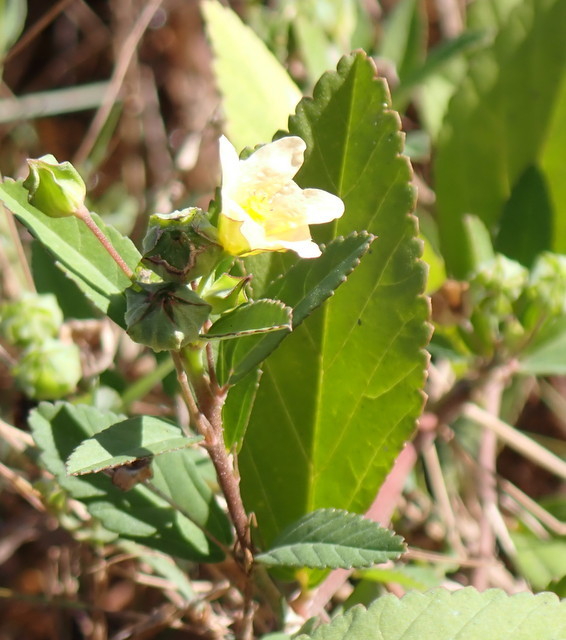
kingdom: Plantae
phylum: Tracheophyta
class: Magnoliopsida
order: Malvales
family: Malvaceae
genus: Sida
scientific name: Sida rhombifolia
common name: Queensland-hemp
